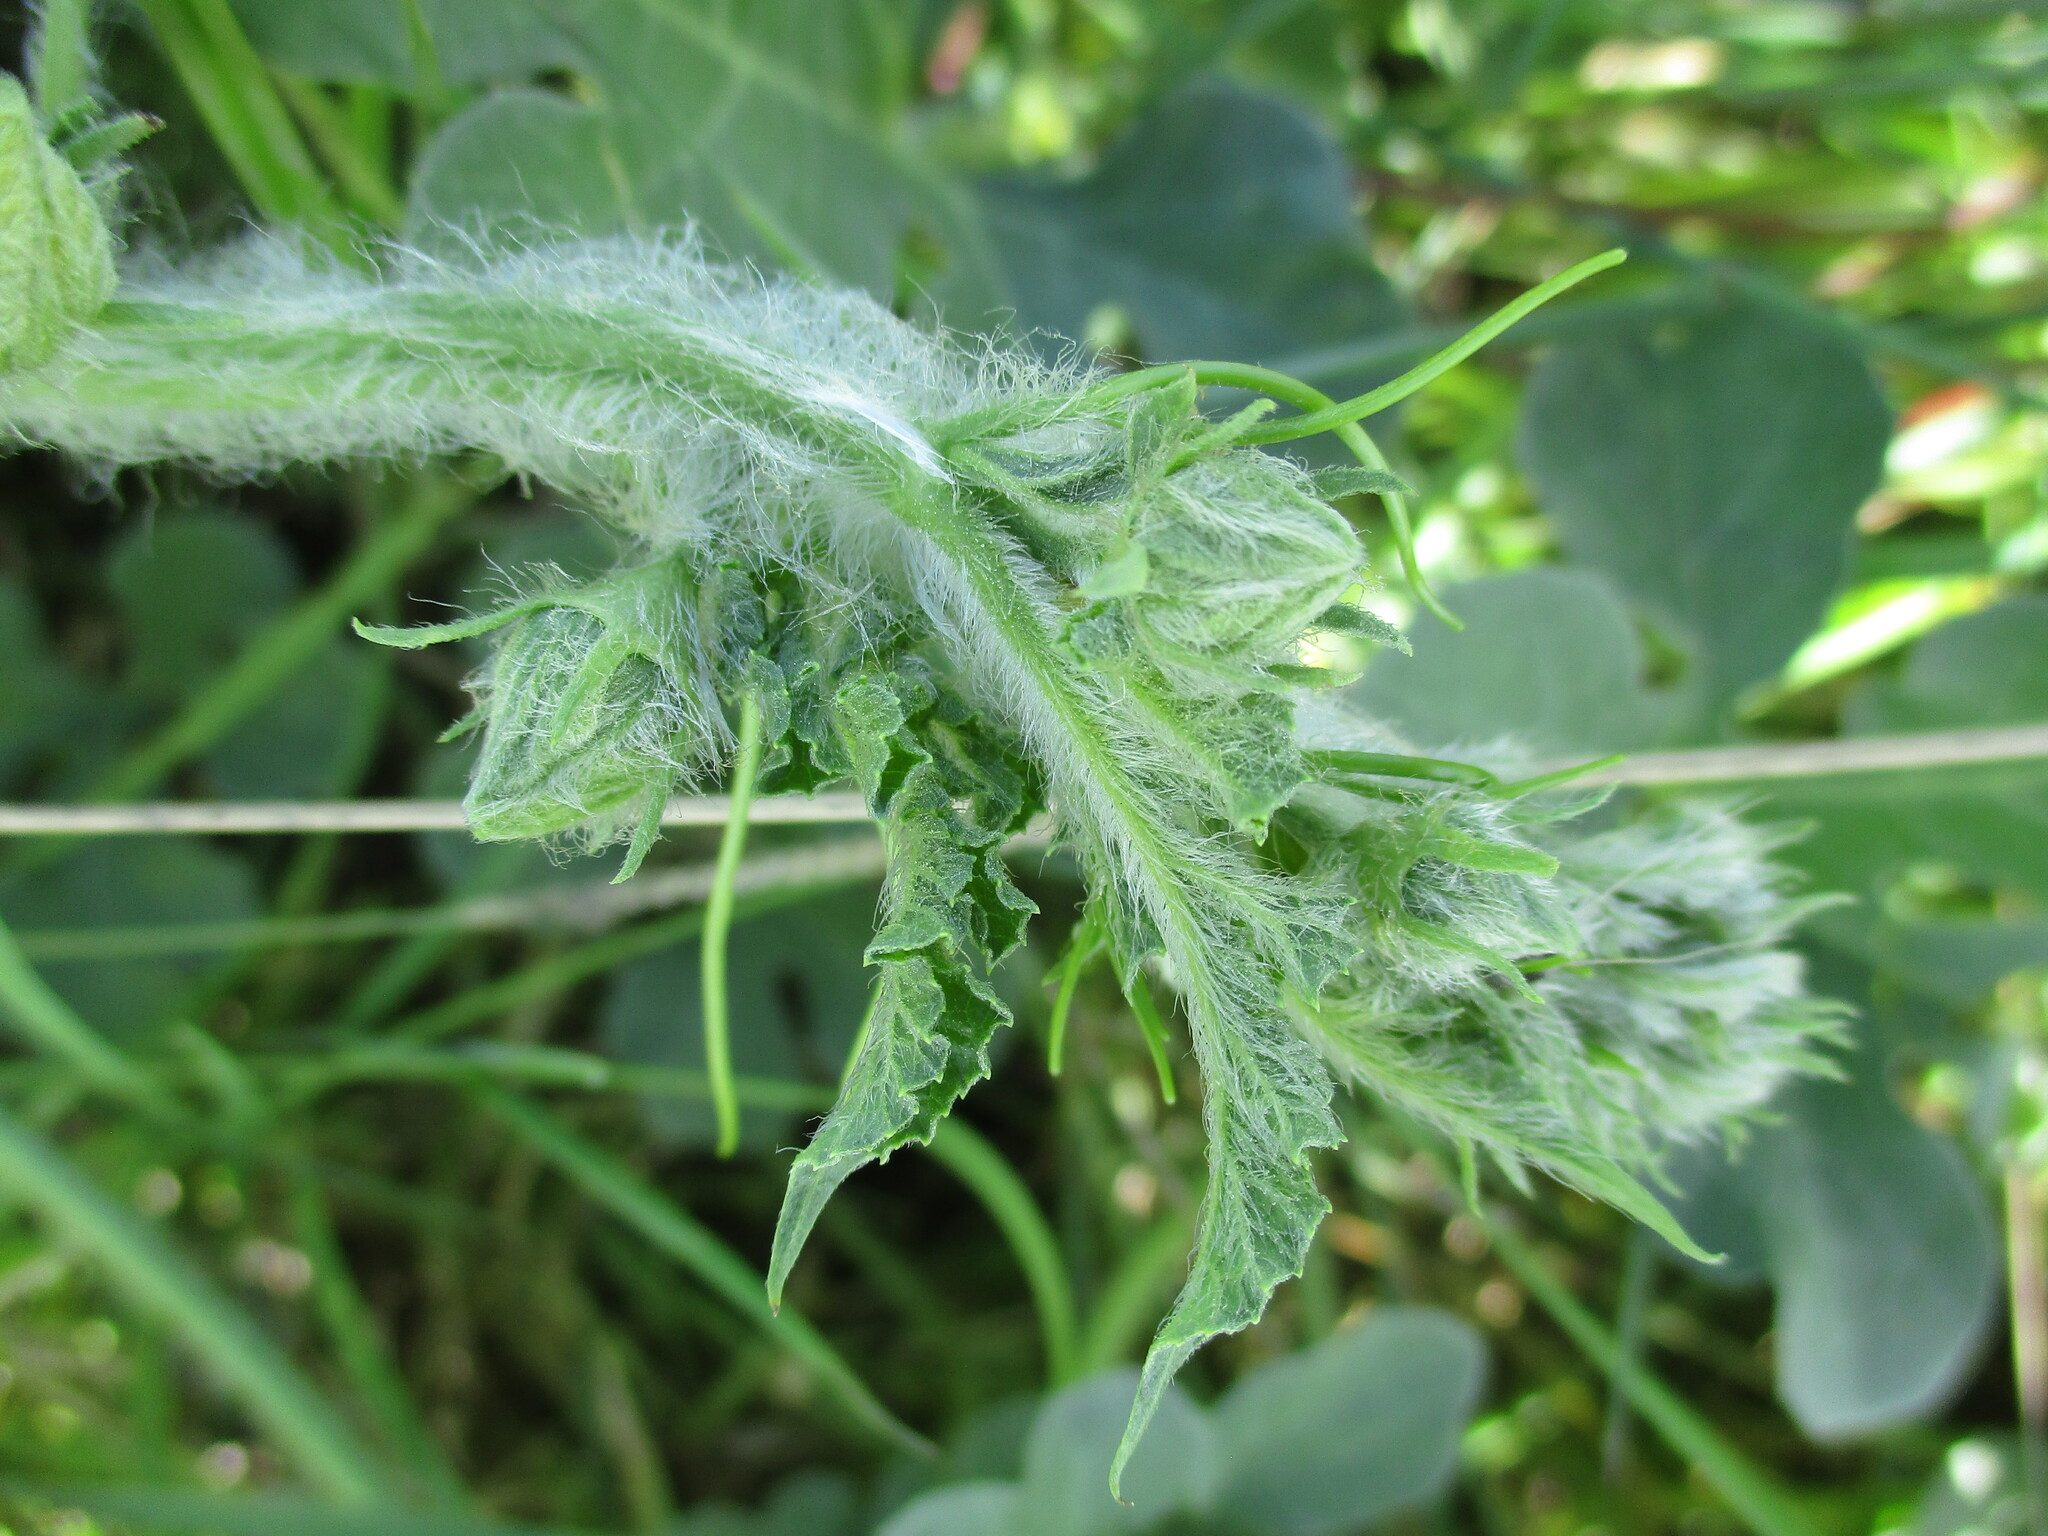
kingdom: Plantae
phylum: Tracheophyta
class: Magnoliopsida
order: Cucurbitales
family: Cucurbitaceae
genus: Citrullus
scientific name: Citrullus amarus
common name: Fodder-melon
